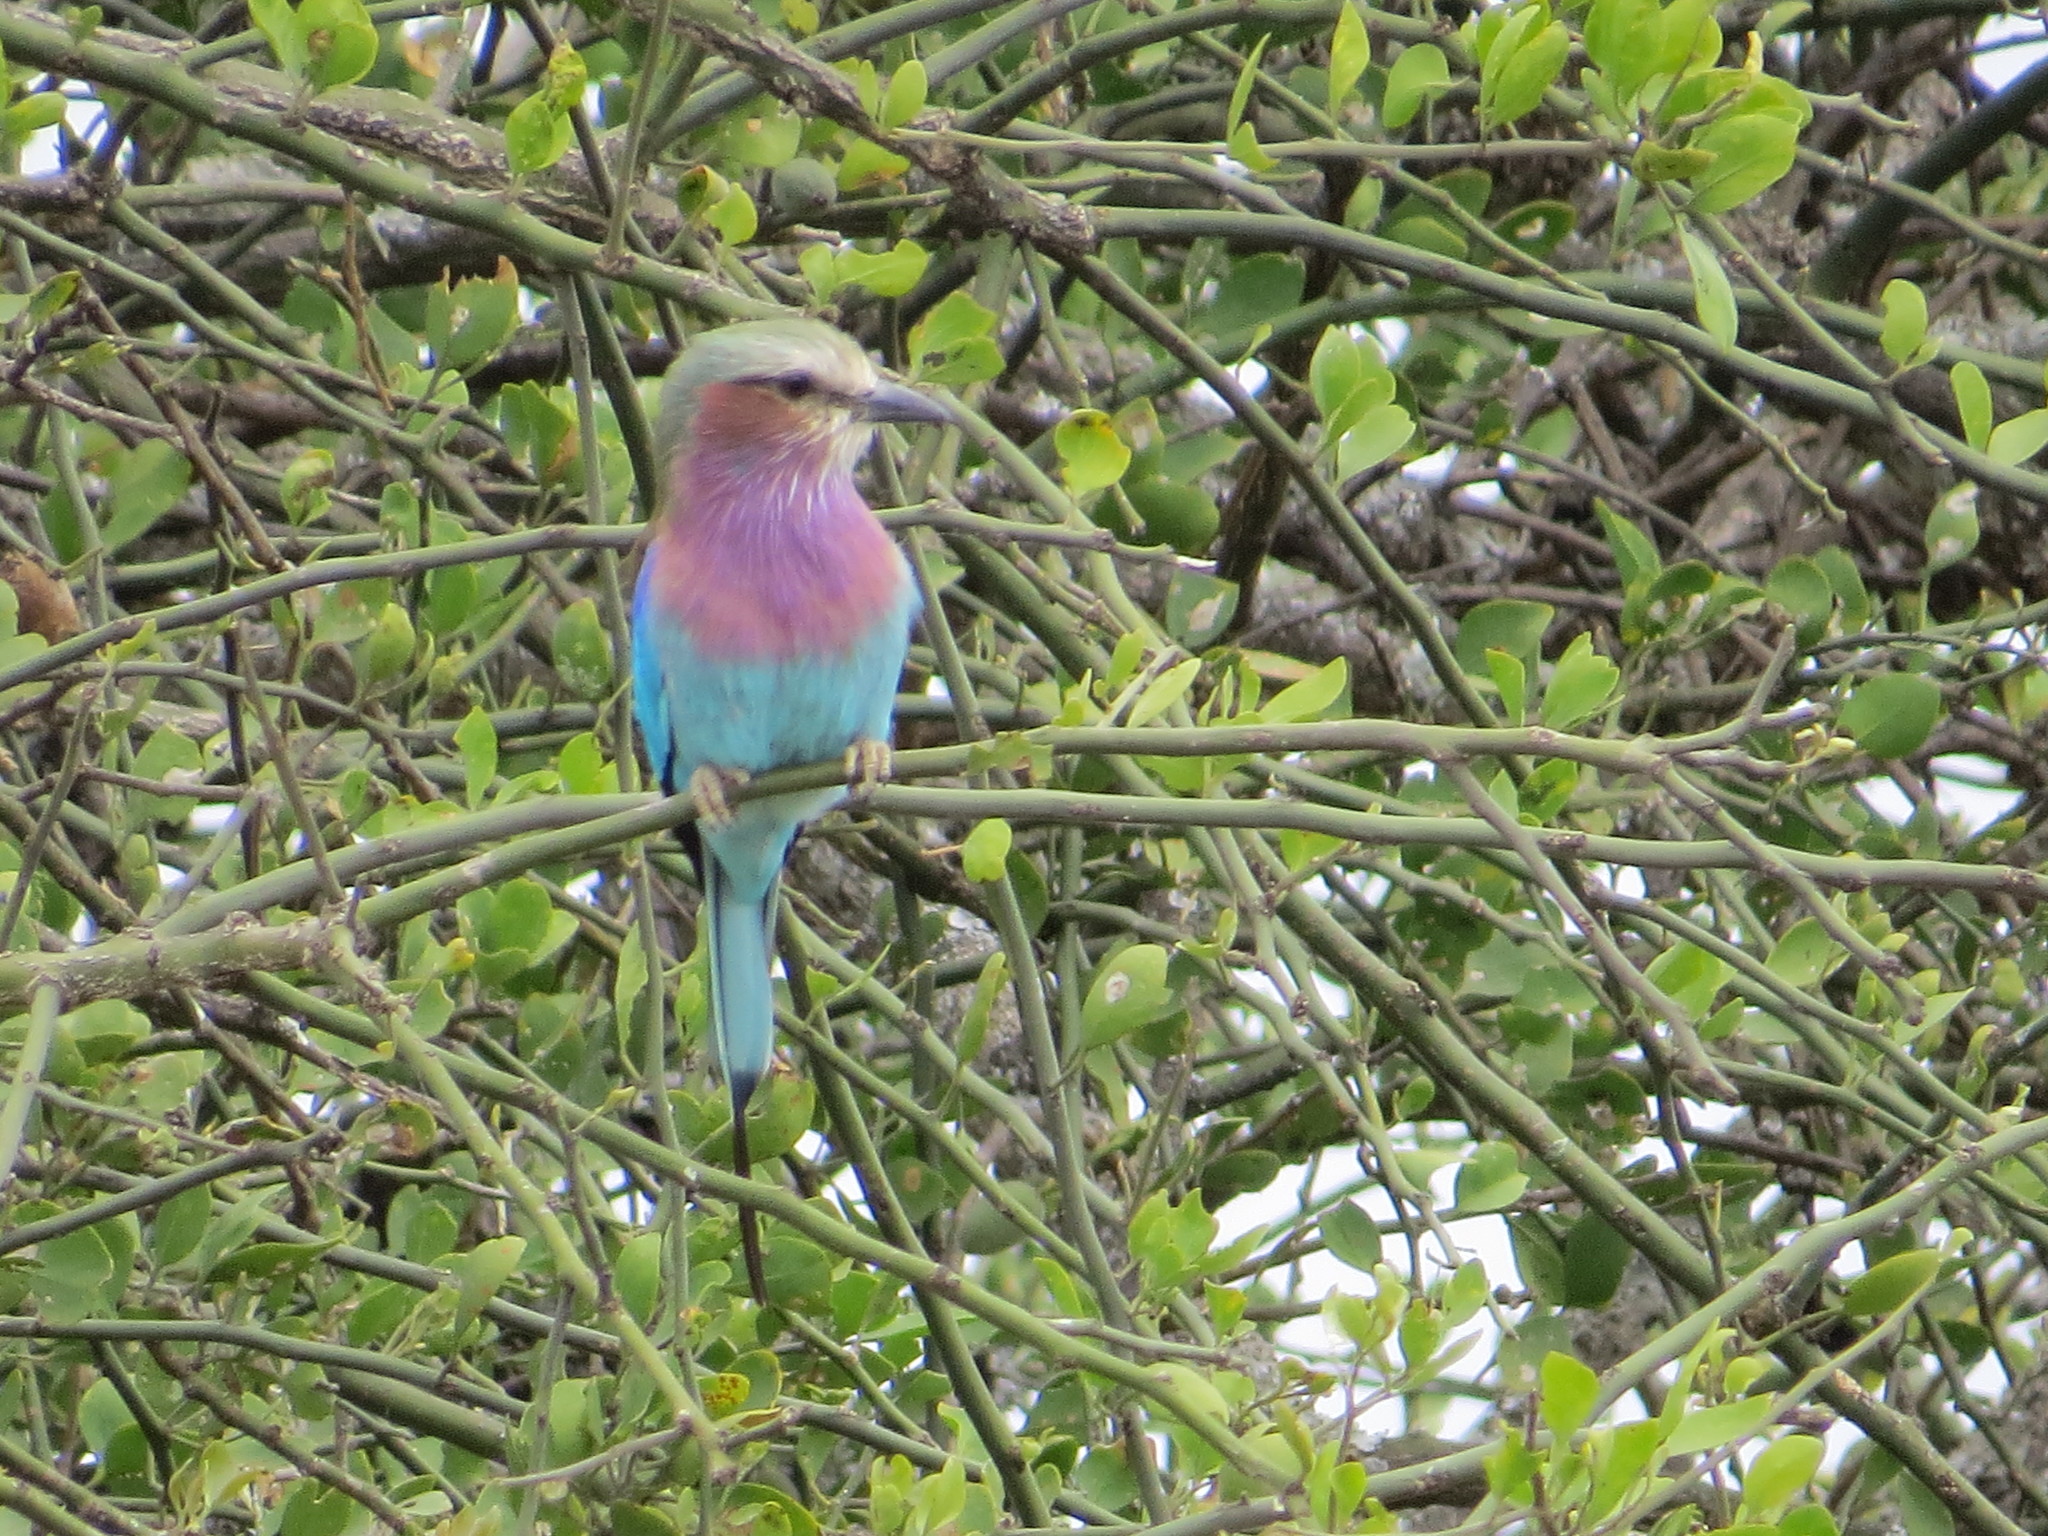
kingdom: Animalia
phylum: Chordata
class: Aves
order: Coraciiformes
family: Coraciidae
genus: Coracias
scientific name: Coracias caudatus
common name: Lilac-breasted roller
